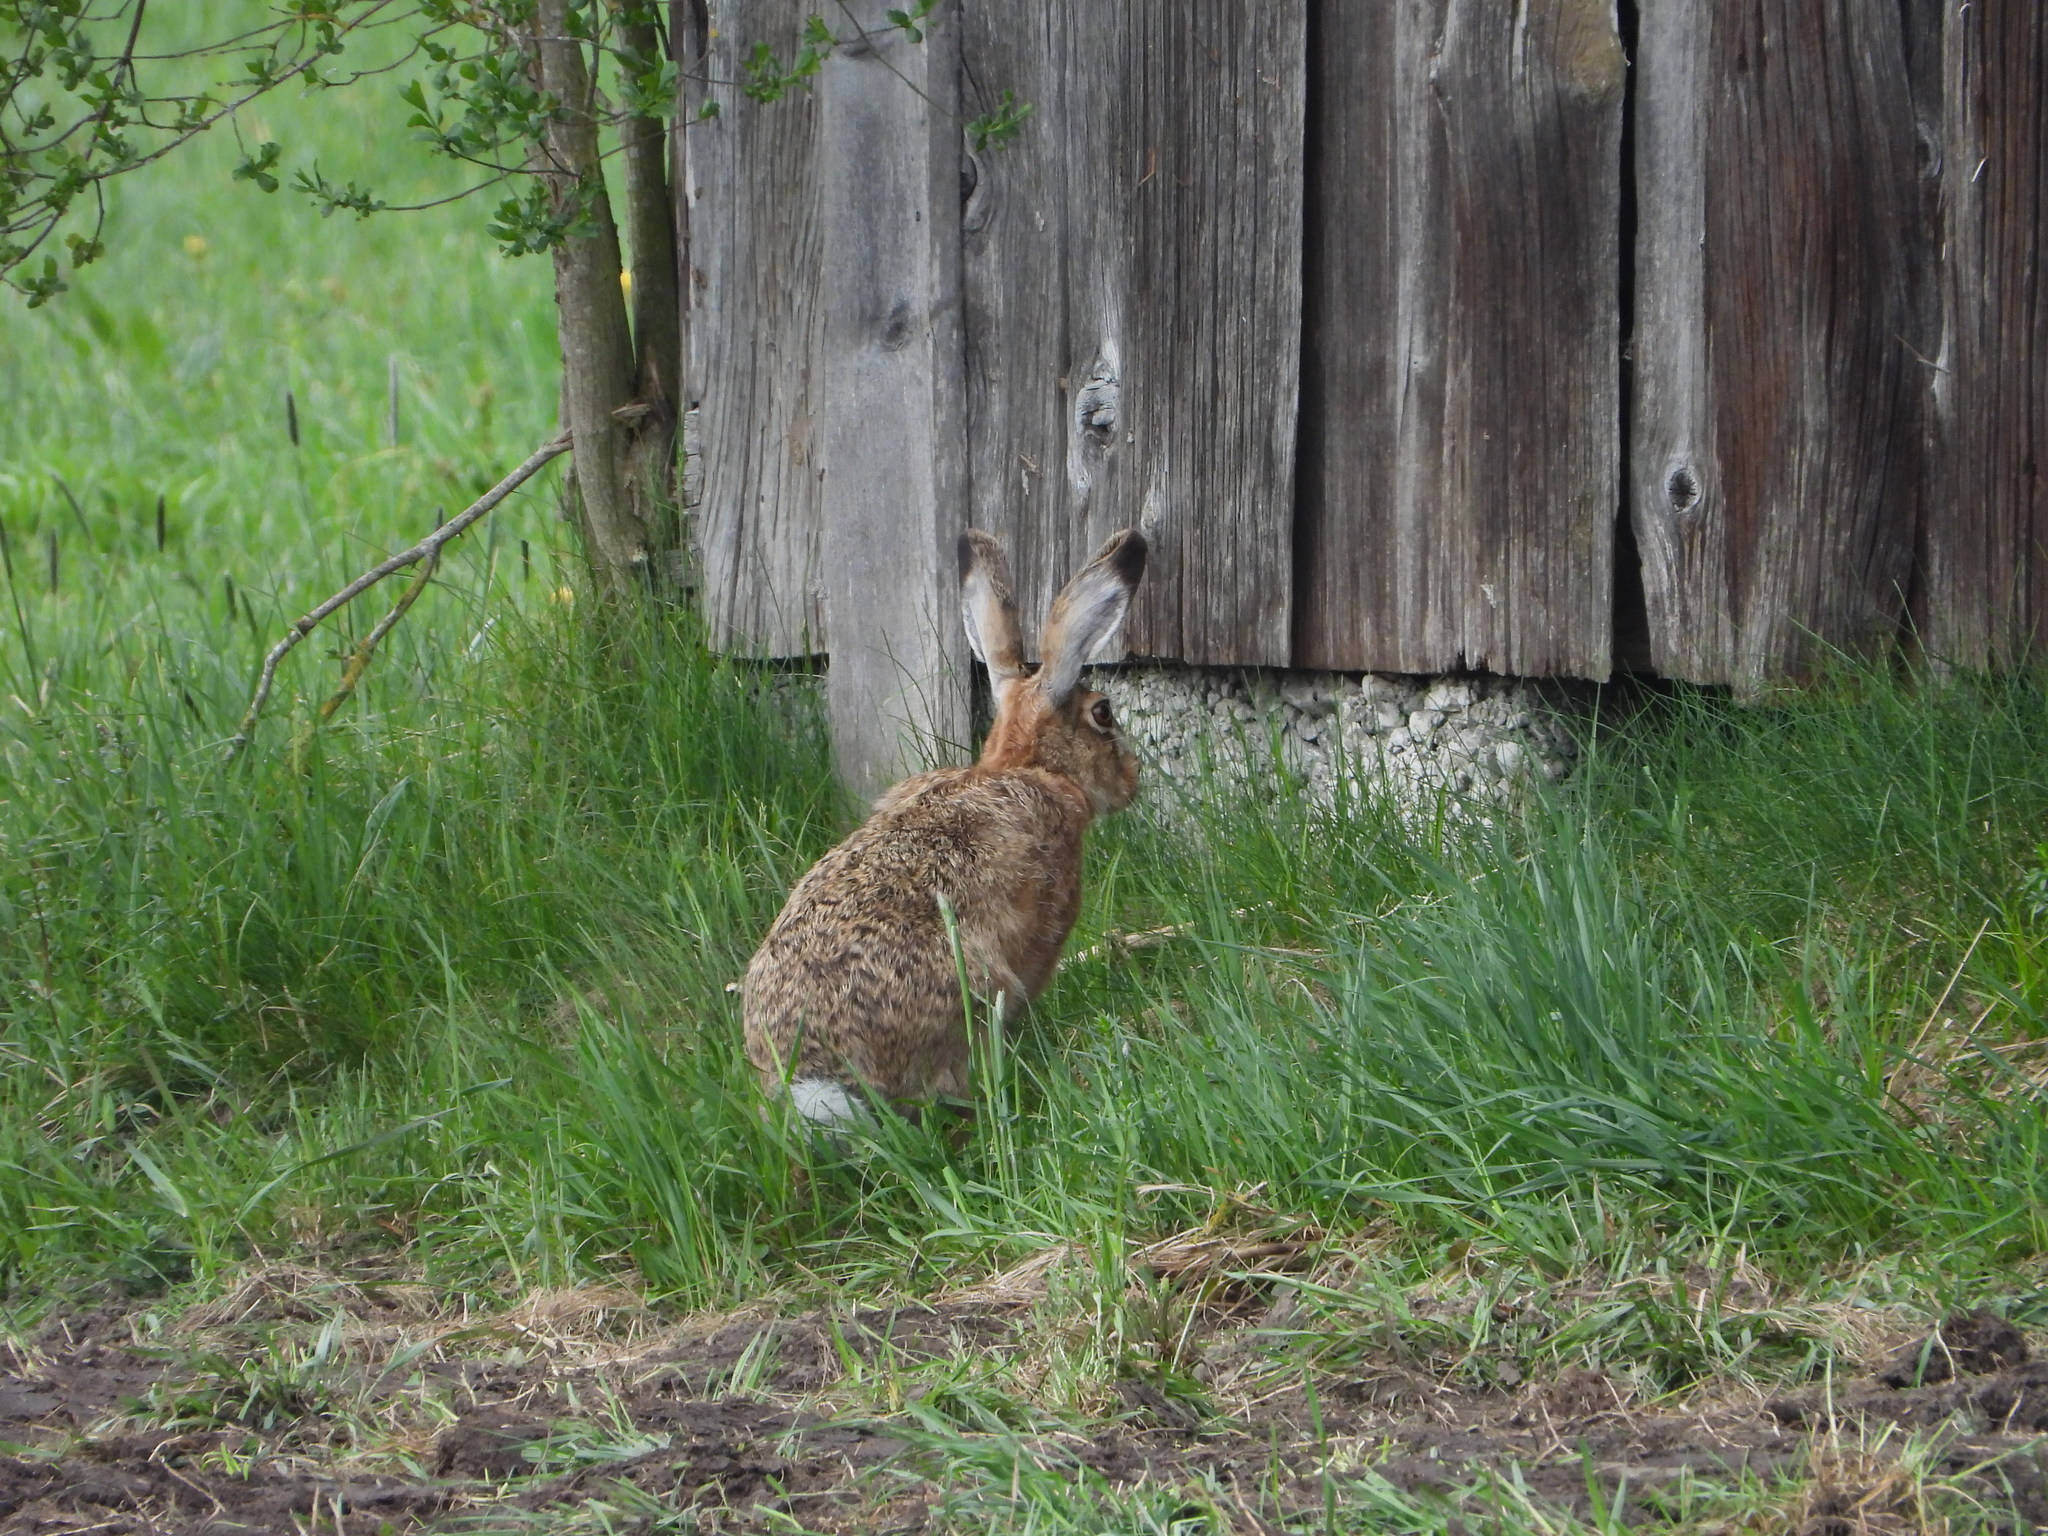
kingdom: Animalia
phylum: Chordata
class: Mammalia
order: Lagomorpha
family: Leporidae
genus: Lepus
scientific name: Lepus europaeus
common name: European hare
